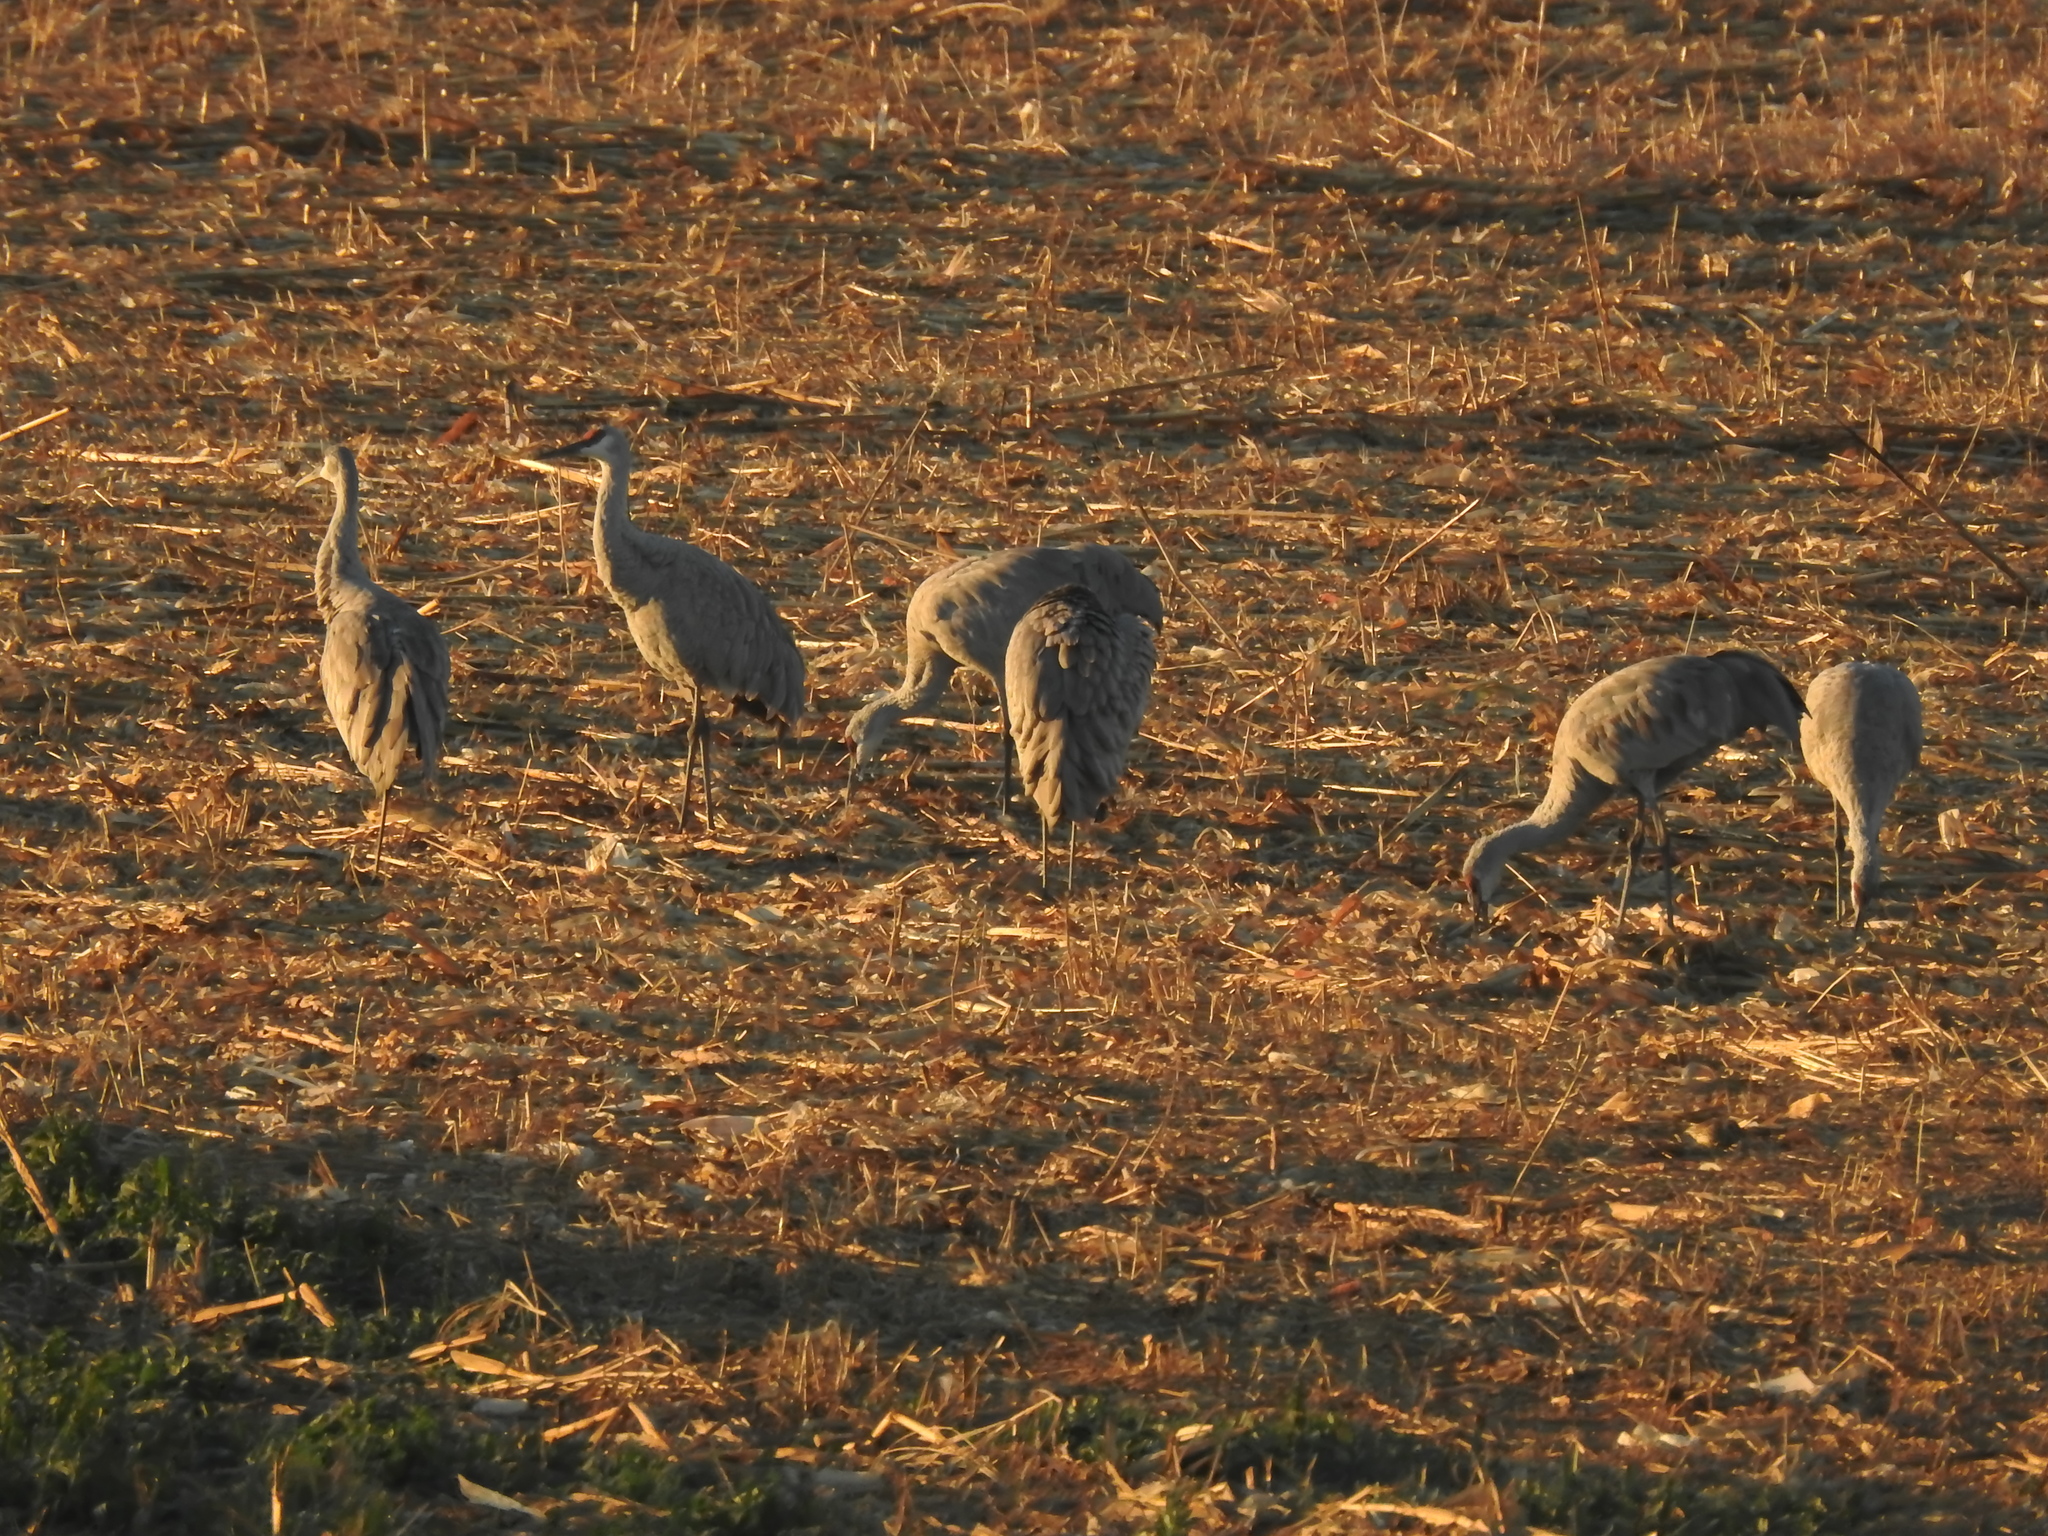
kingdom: Animalia
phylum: Chordata
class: Aves
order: Gruiformes
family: Gruidae
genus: Grus
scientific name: Grus canadensis
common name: Sandhill crane
